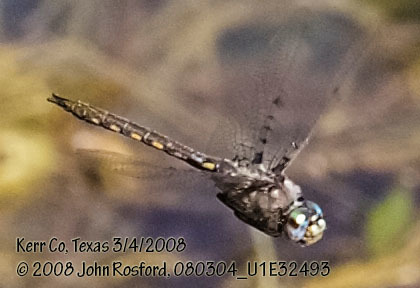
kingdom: Animalia
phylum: Arthropoda
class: Insecta
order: Odonata
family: Corduliidae
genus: Epitheca
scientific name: Epitheca petechialis
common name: Dot-winged baskettail
